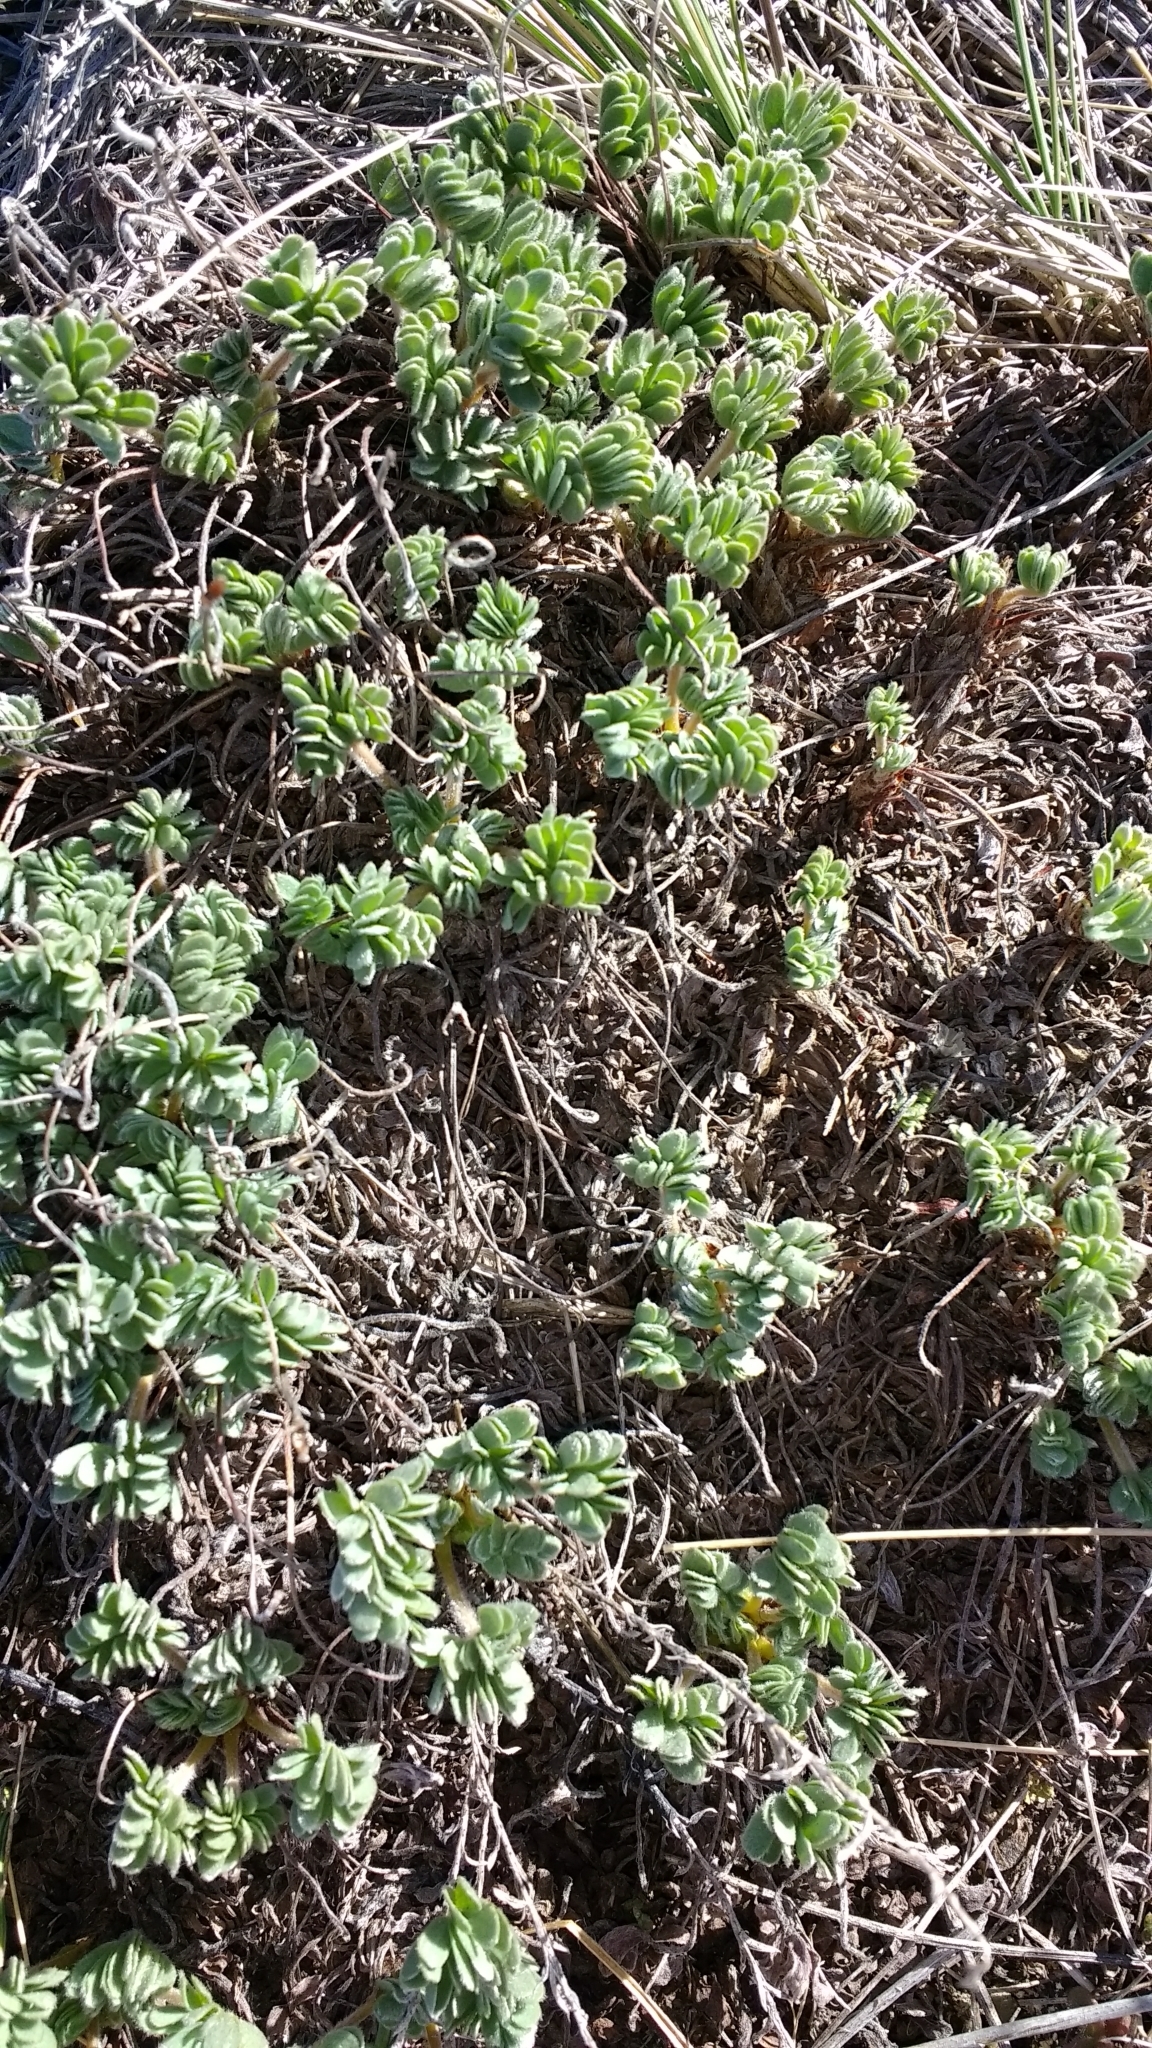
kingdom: Plantae
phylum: Tracheophyta
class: Magnoliopsida
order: Oxalidales
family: Oxalidaceae
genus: Oxalis
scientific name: Oxalis enneaphylla
